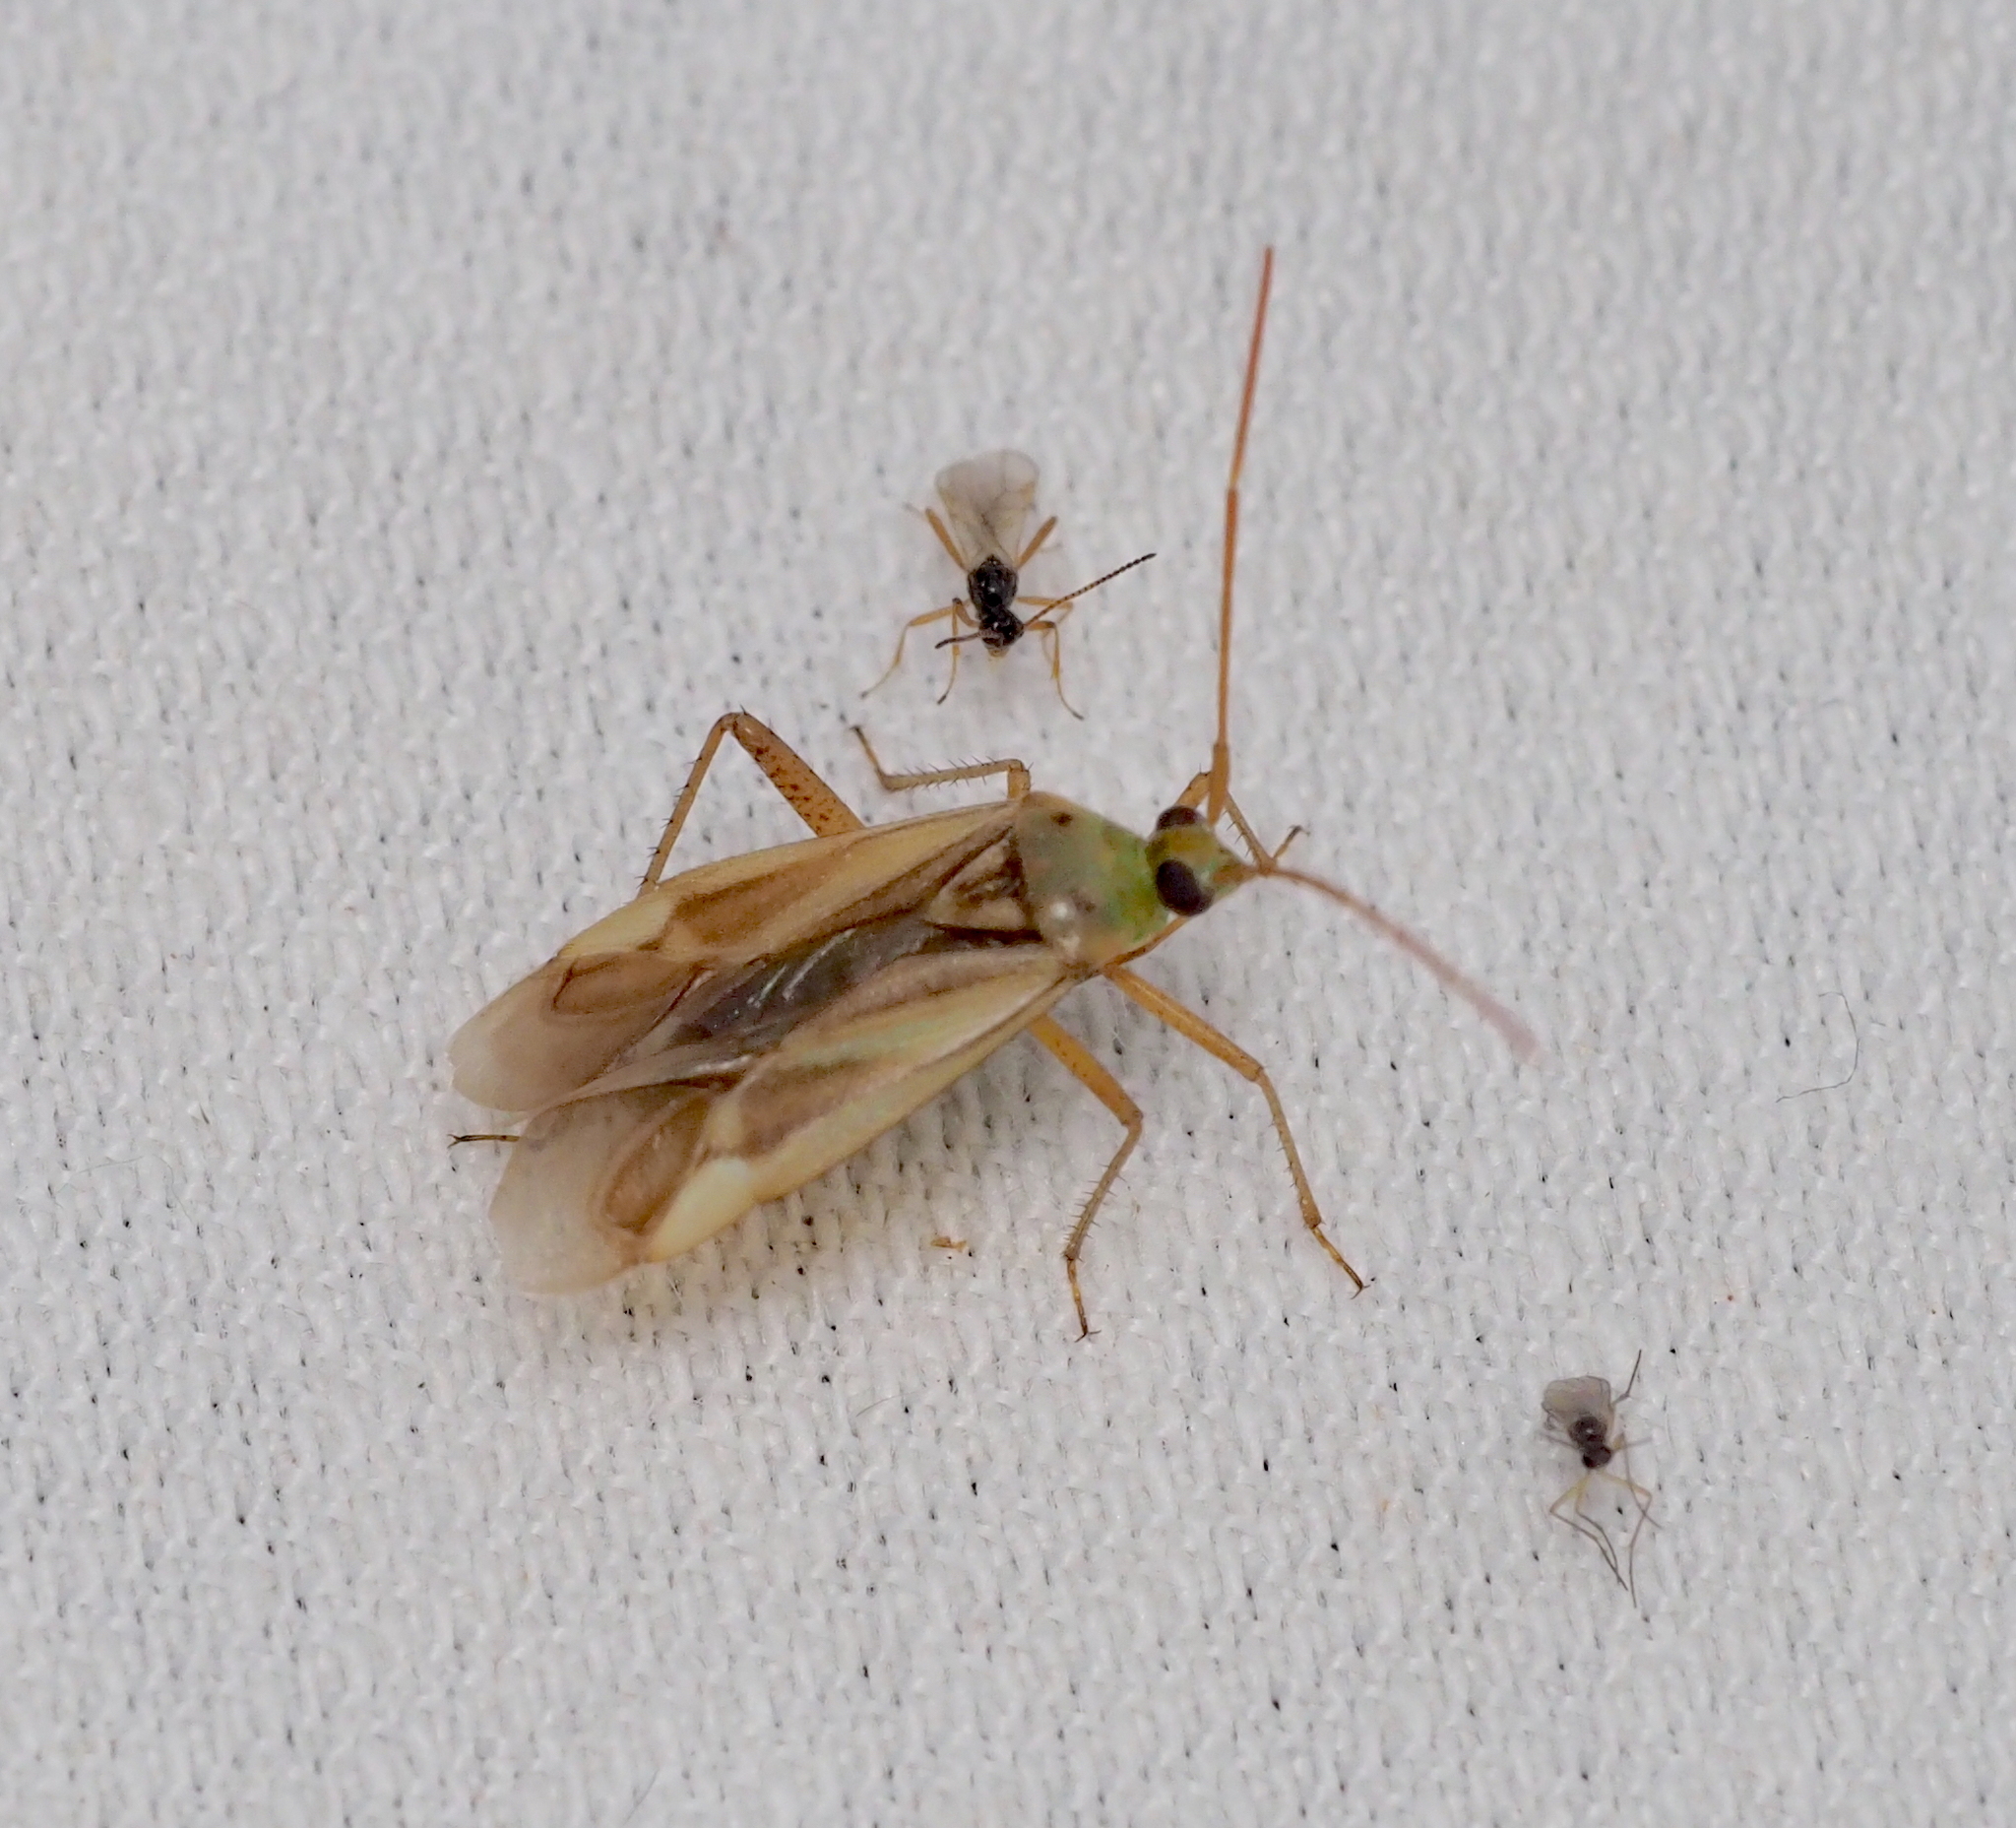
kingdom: Animalia
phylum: Arthropoda
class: Insecta
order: Hemiptera
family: Miridae
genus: Adelphocoris
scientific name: Adelphocoris lineolatus
